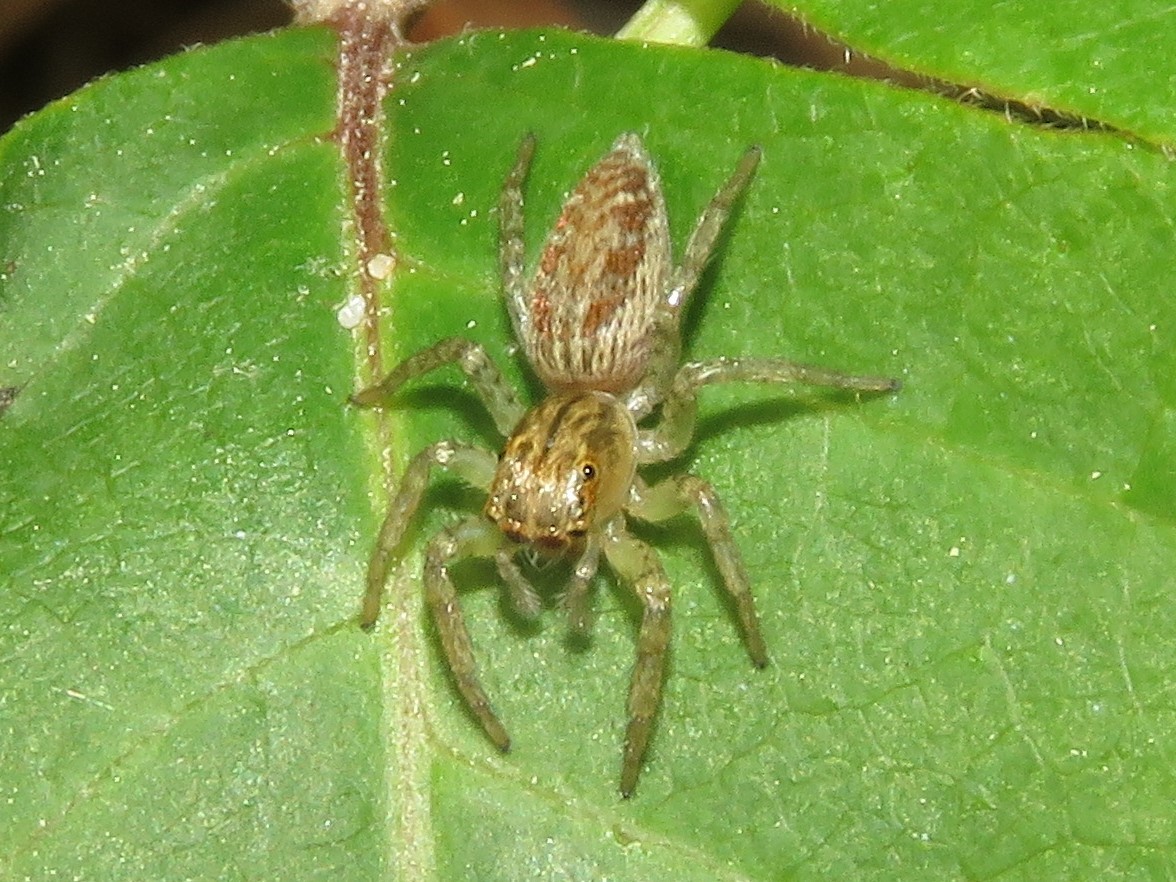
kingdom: Animalia
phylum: Arthropoda
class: Arachnida
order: Araneae
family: Salticidae
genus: Maevia
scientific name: Maevia inclemens
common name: Dimorphic jumper
